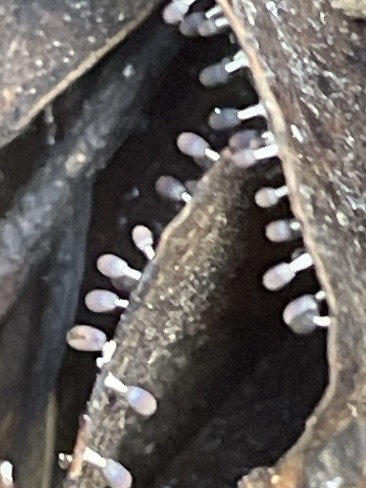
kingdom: Protozoa
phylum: Mycetozoa
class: Myxomycetes
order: Physarales
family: Didymiaceae
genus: Diachea
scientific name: Diachea leucopodia
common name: White-footed slime
